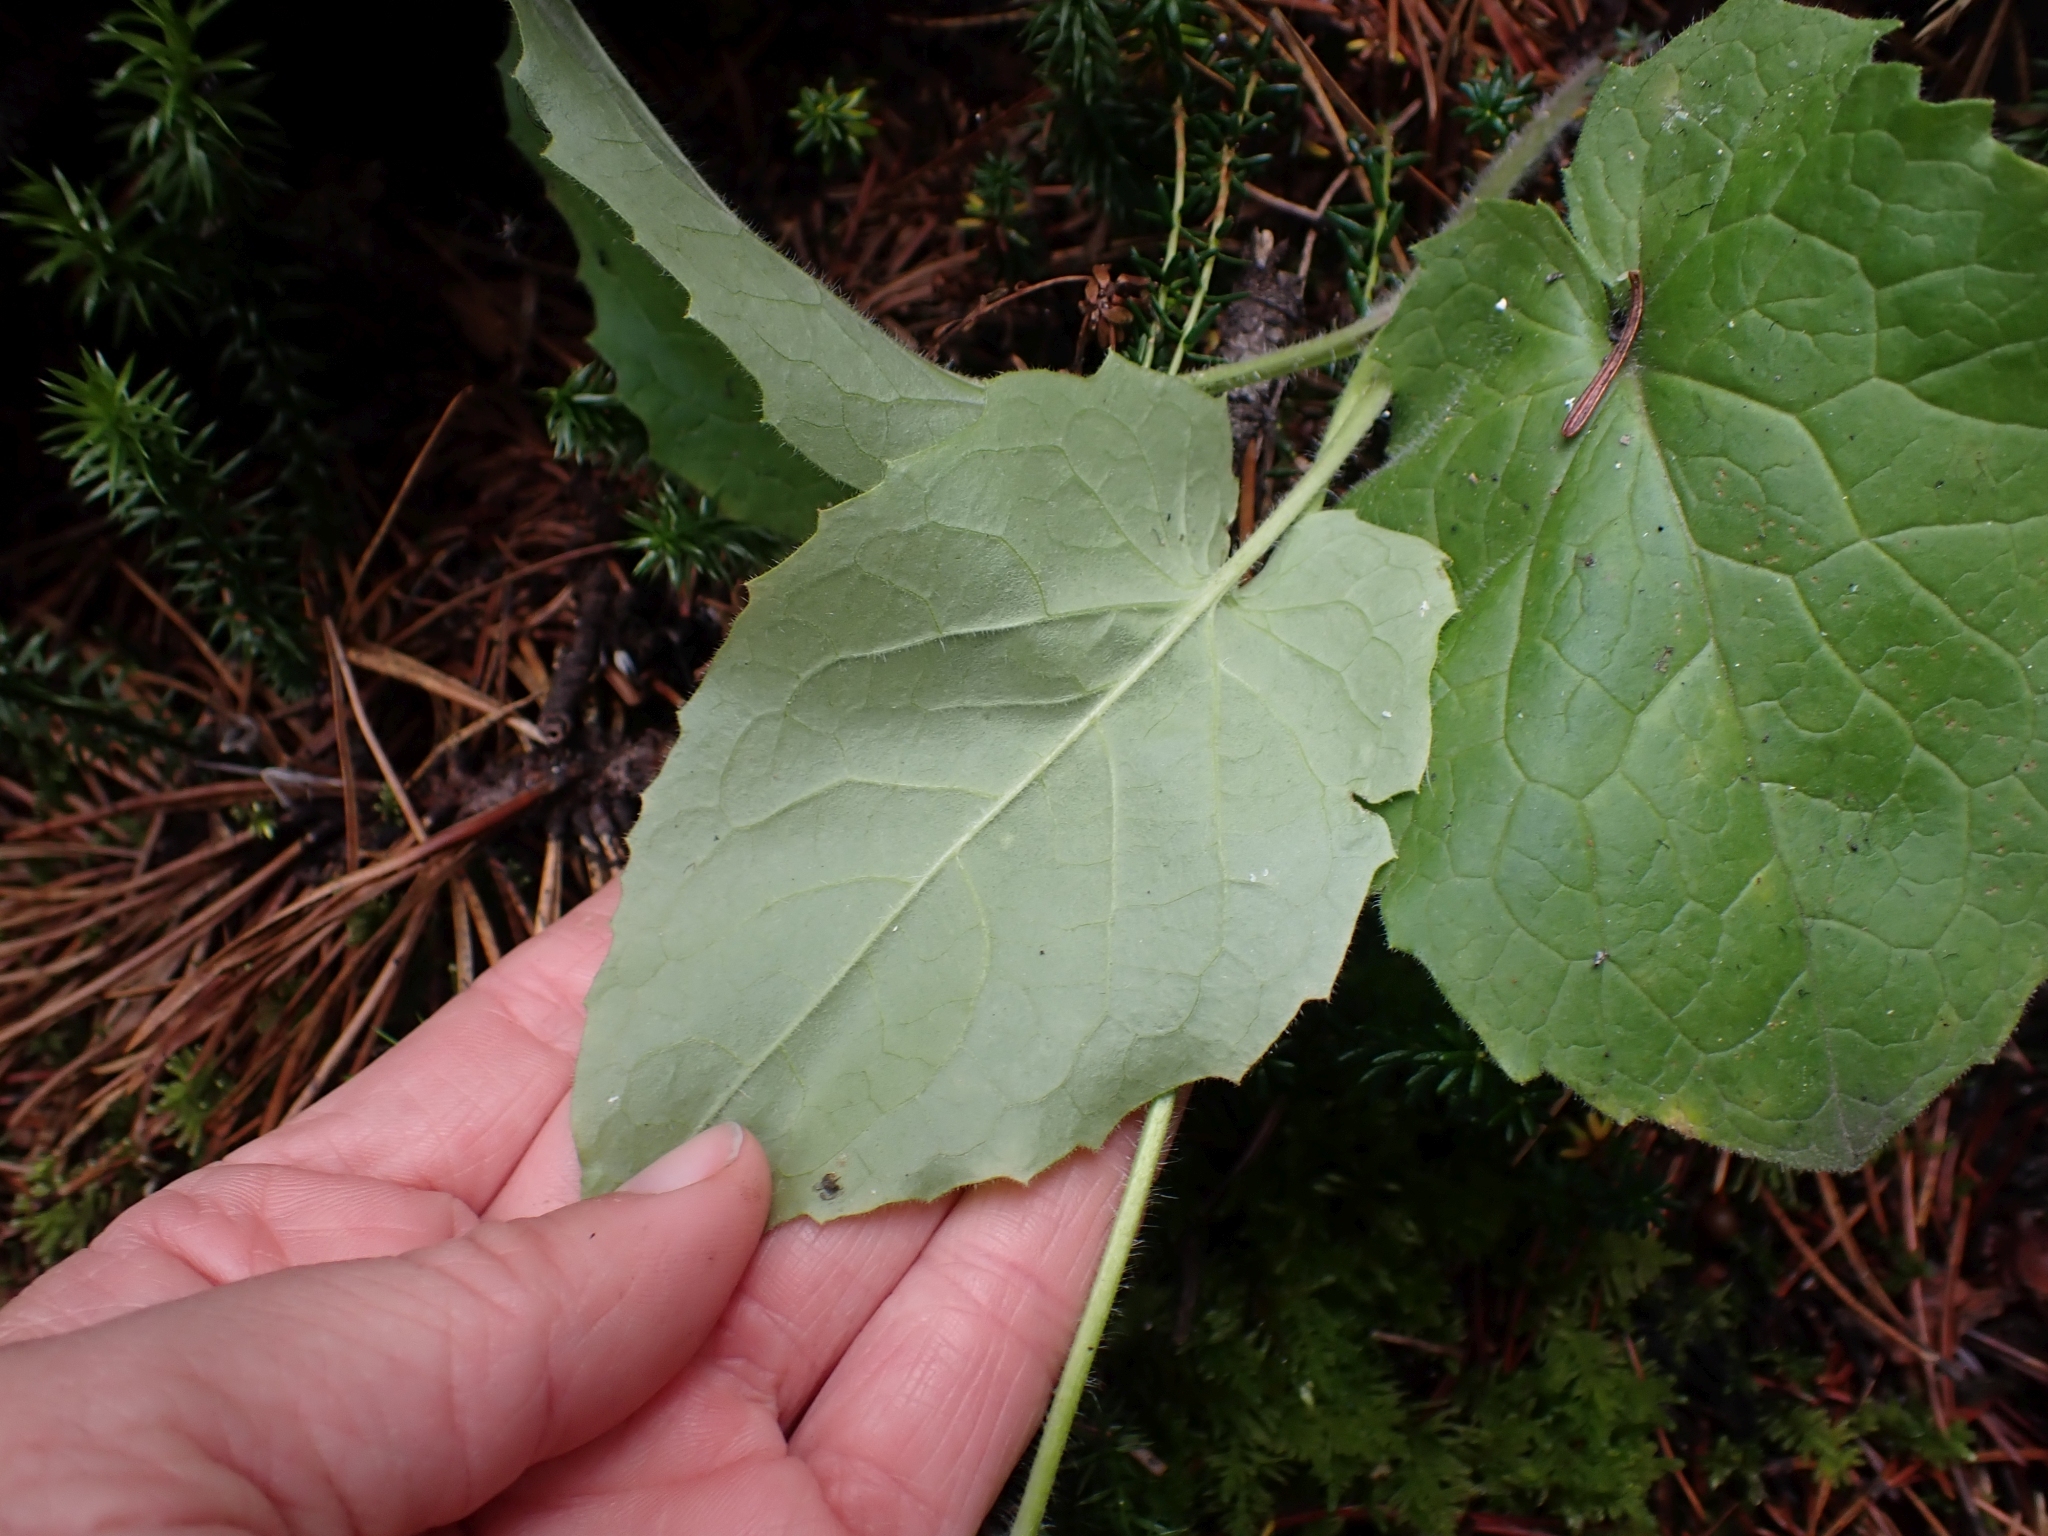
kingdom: Plantae
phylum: Tracheophyta
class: Magnoliopsida
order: Asterales
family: Asteraceae
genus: Arnica
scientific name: Arnica cordifolia
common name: Heart-leaf arnica
